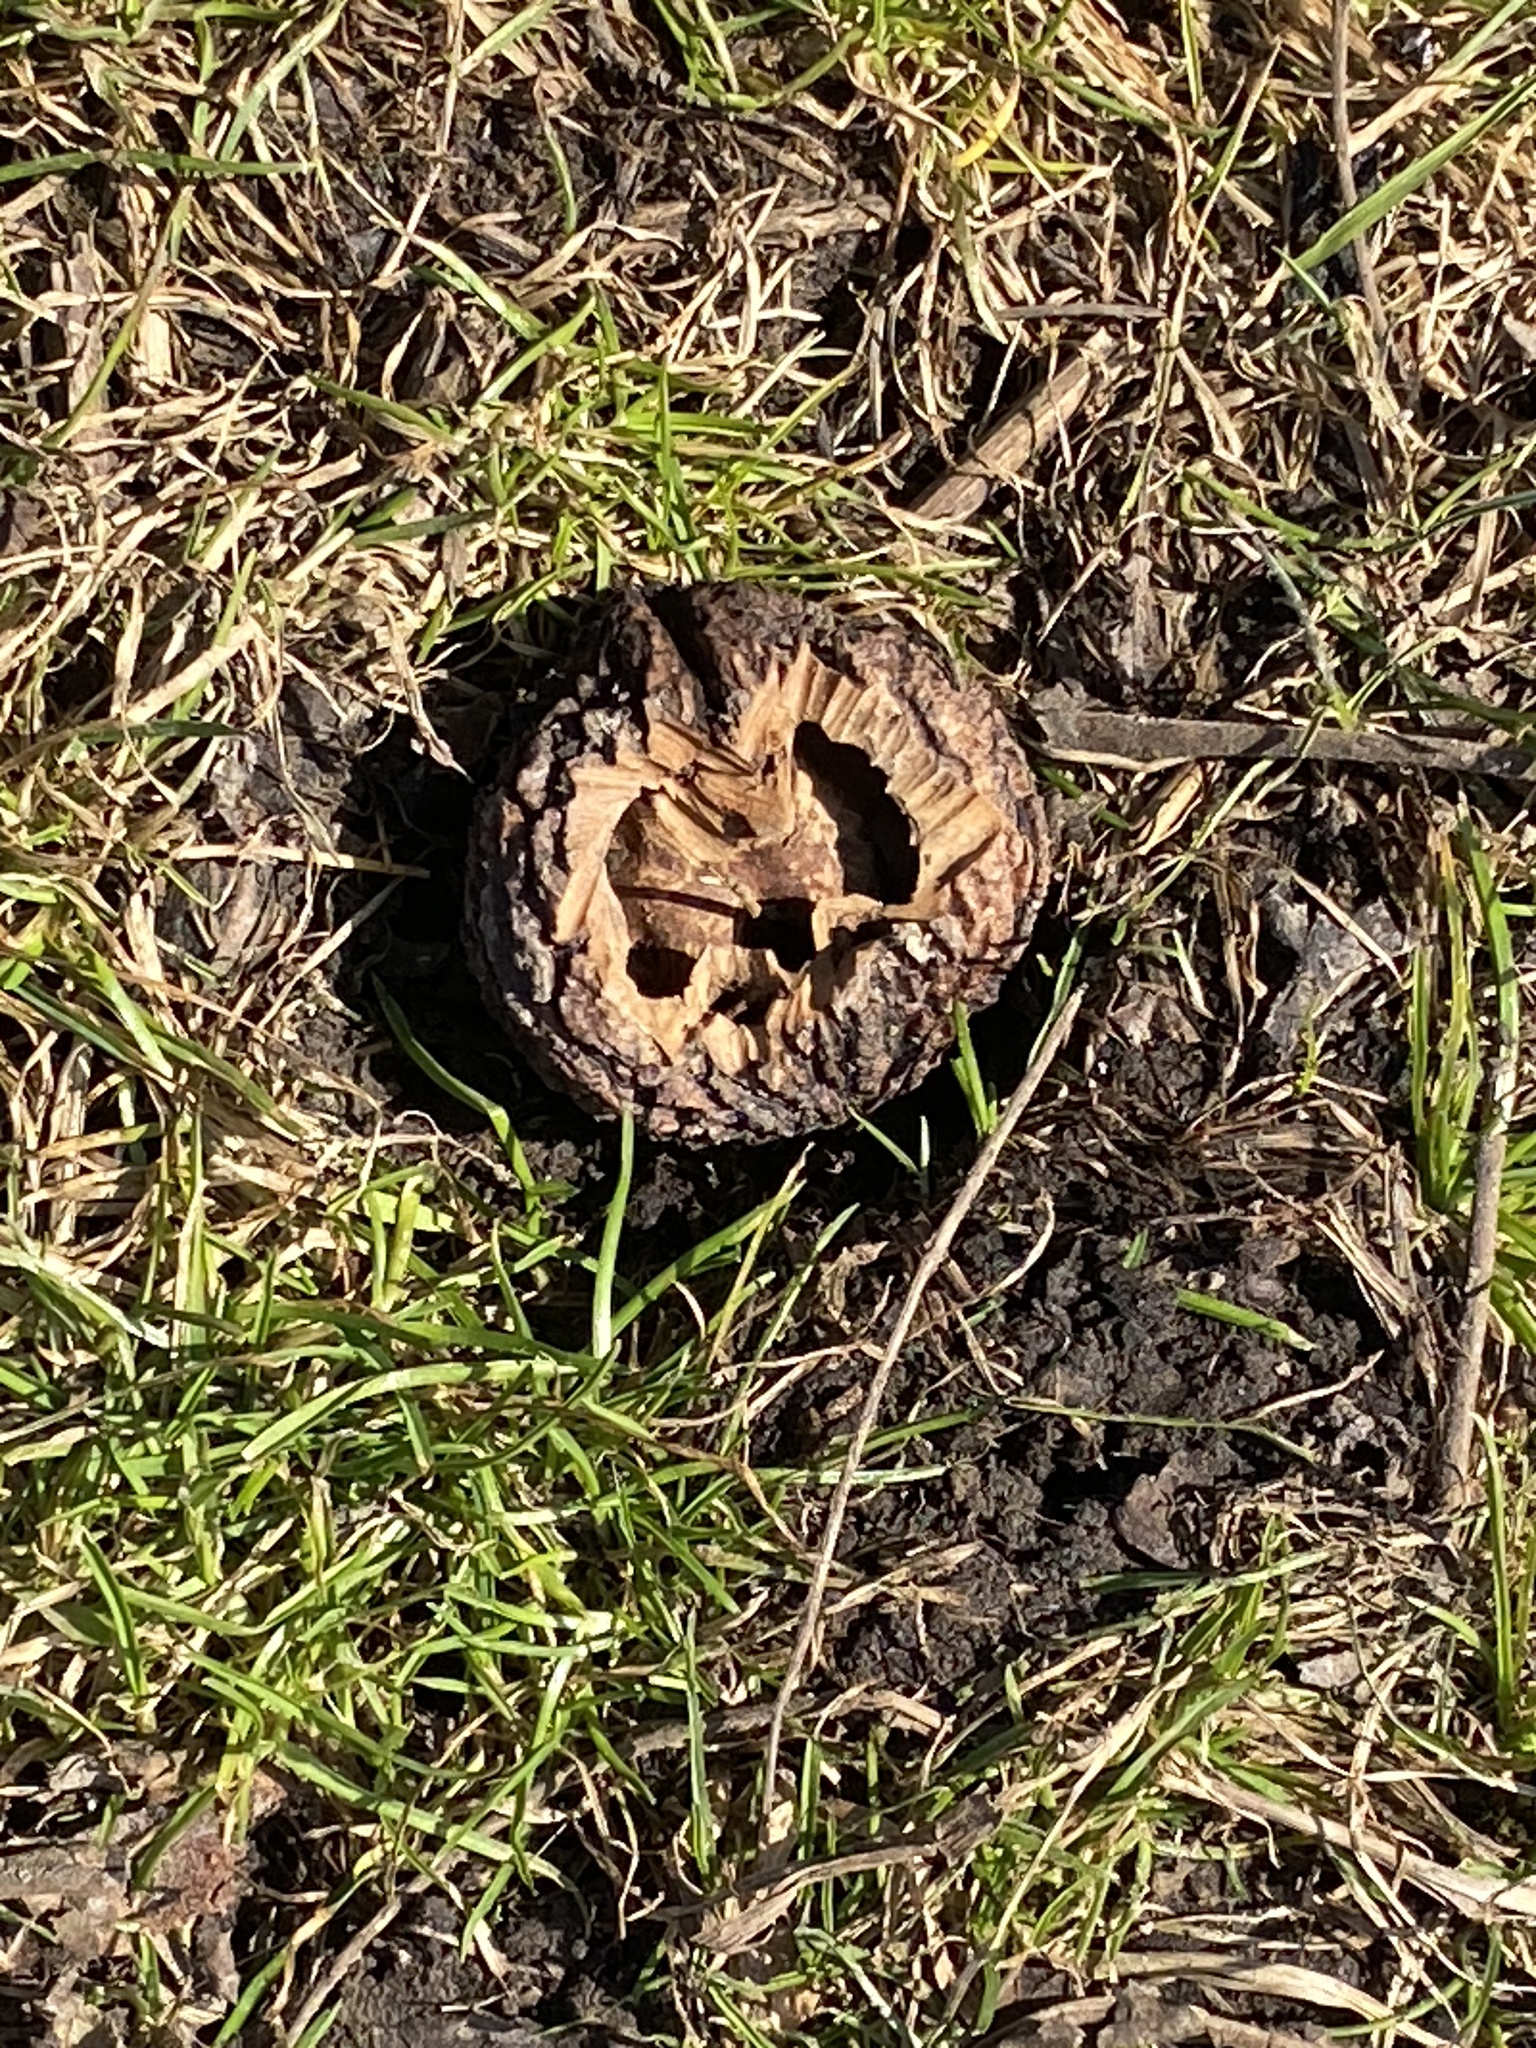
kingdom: Plantae
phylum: Tracheophyta
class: Magnoliopsida
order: Fagales
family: Juglandaceae
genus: Juglans
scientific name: Juglans nigra
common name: Black walnut
